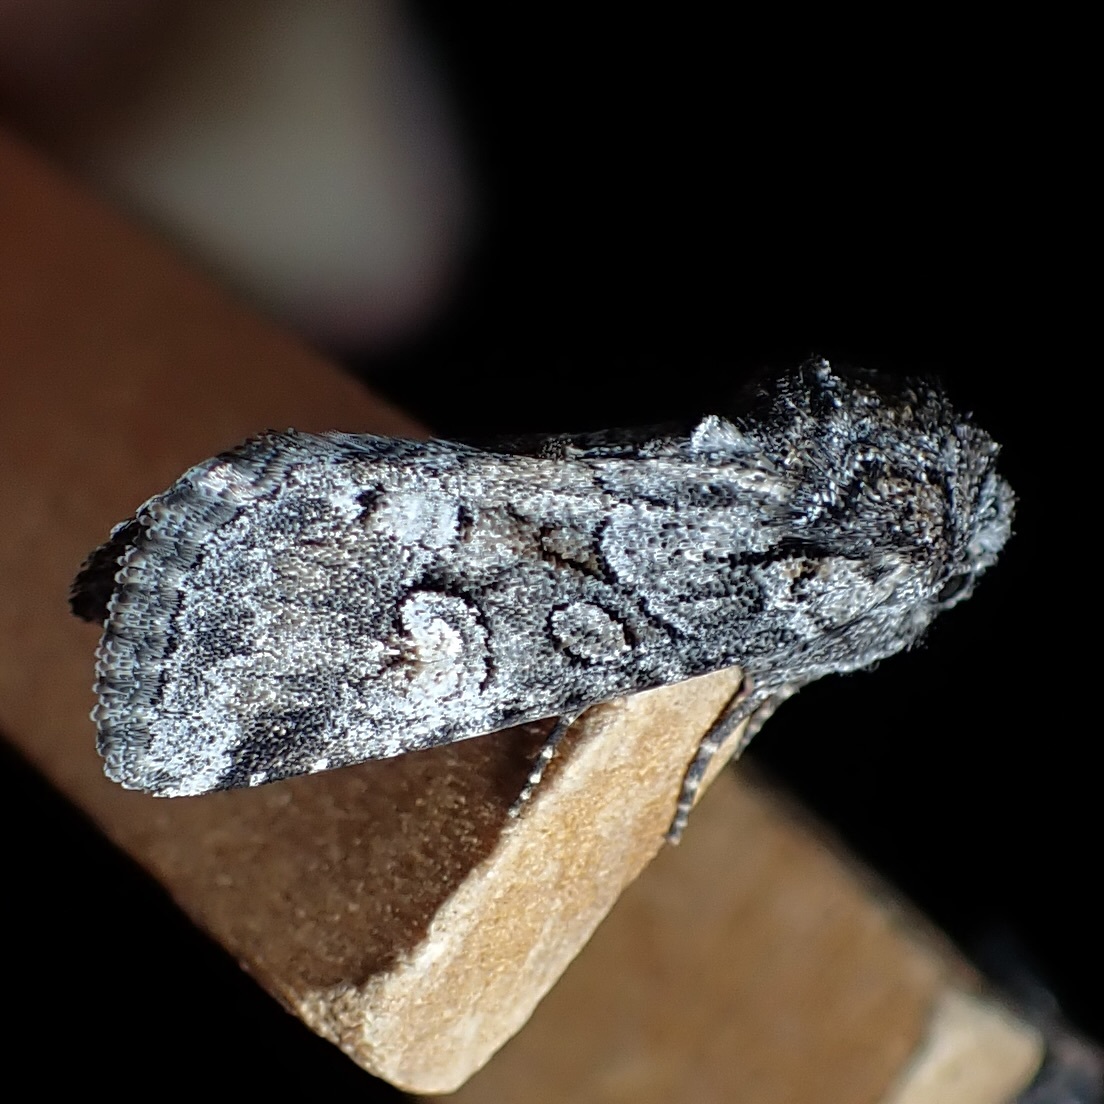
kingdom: Animalia
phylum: Arthropoda
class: Insecta
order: Lepidoptera
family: Noctuidae
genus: Lacinipolia
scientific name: Lacinipolia rodora
